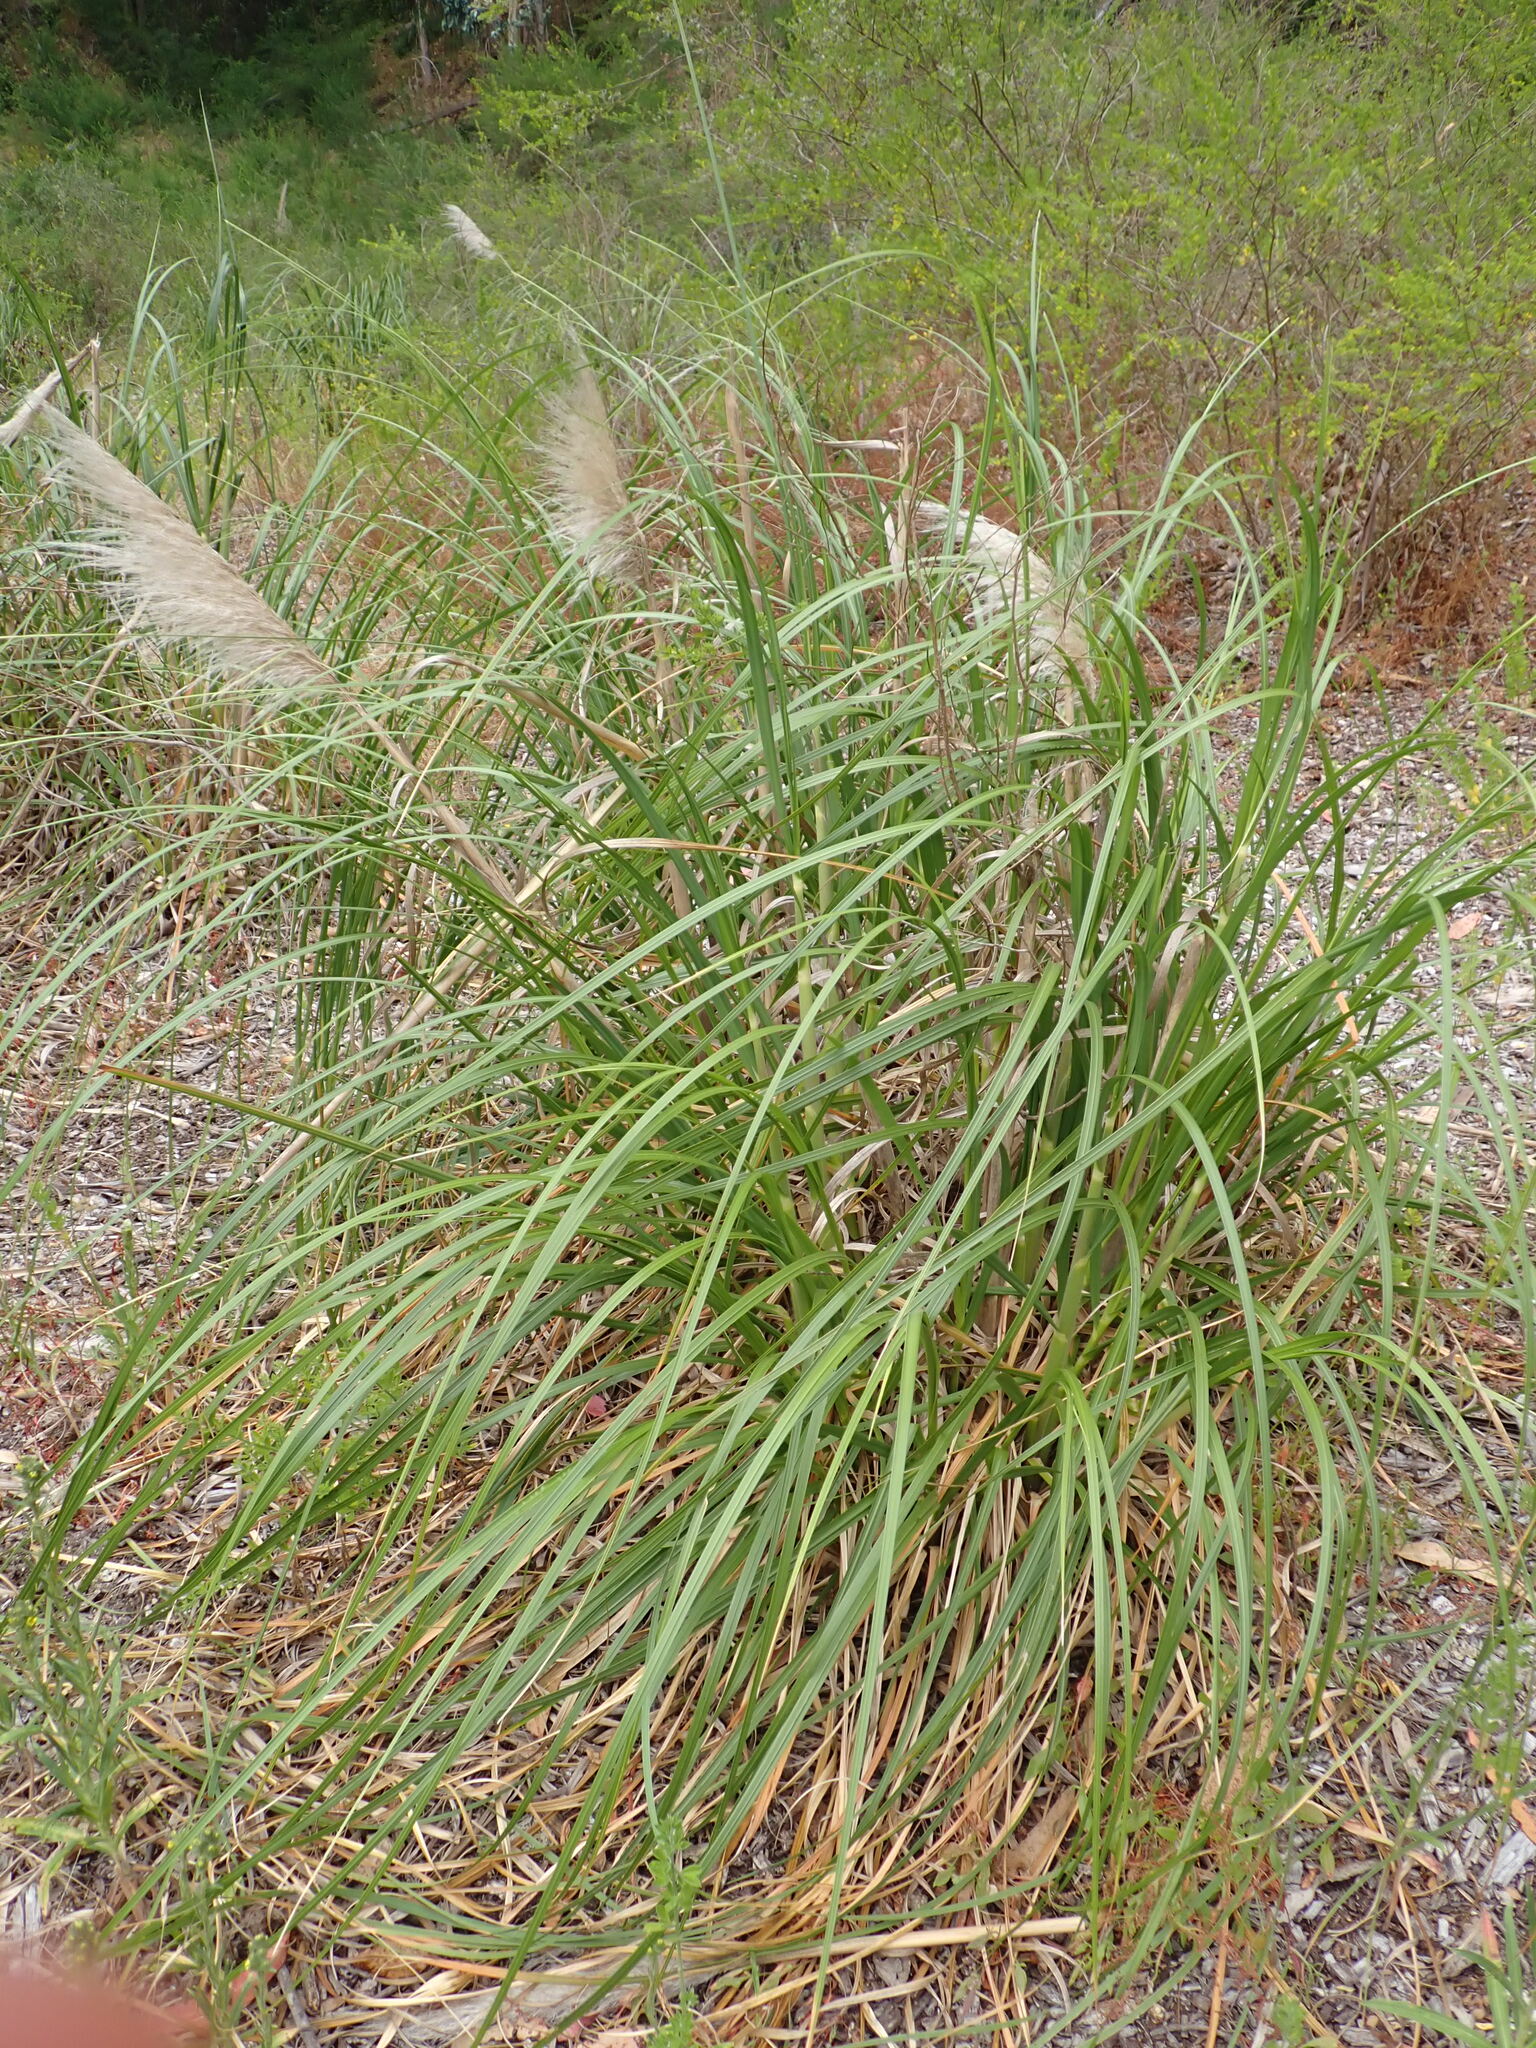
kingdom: Plantae
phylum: Tracheophyta
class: Liliopsida
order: Poales
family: Poaceae
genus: Cortaderia
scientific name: Cortaderia jubata
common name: Purple pampas grass
